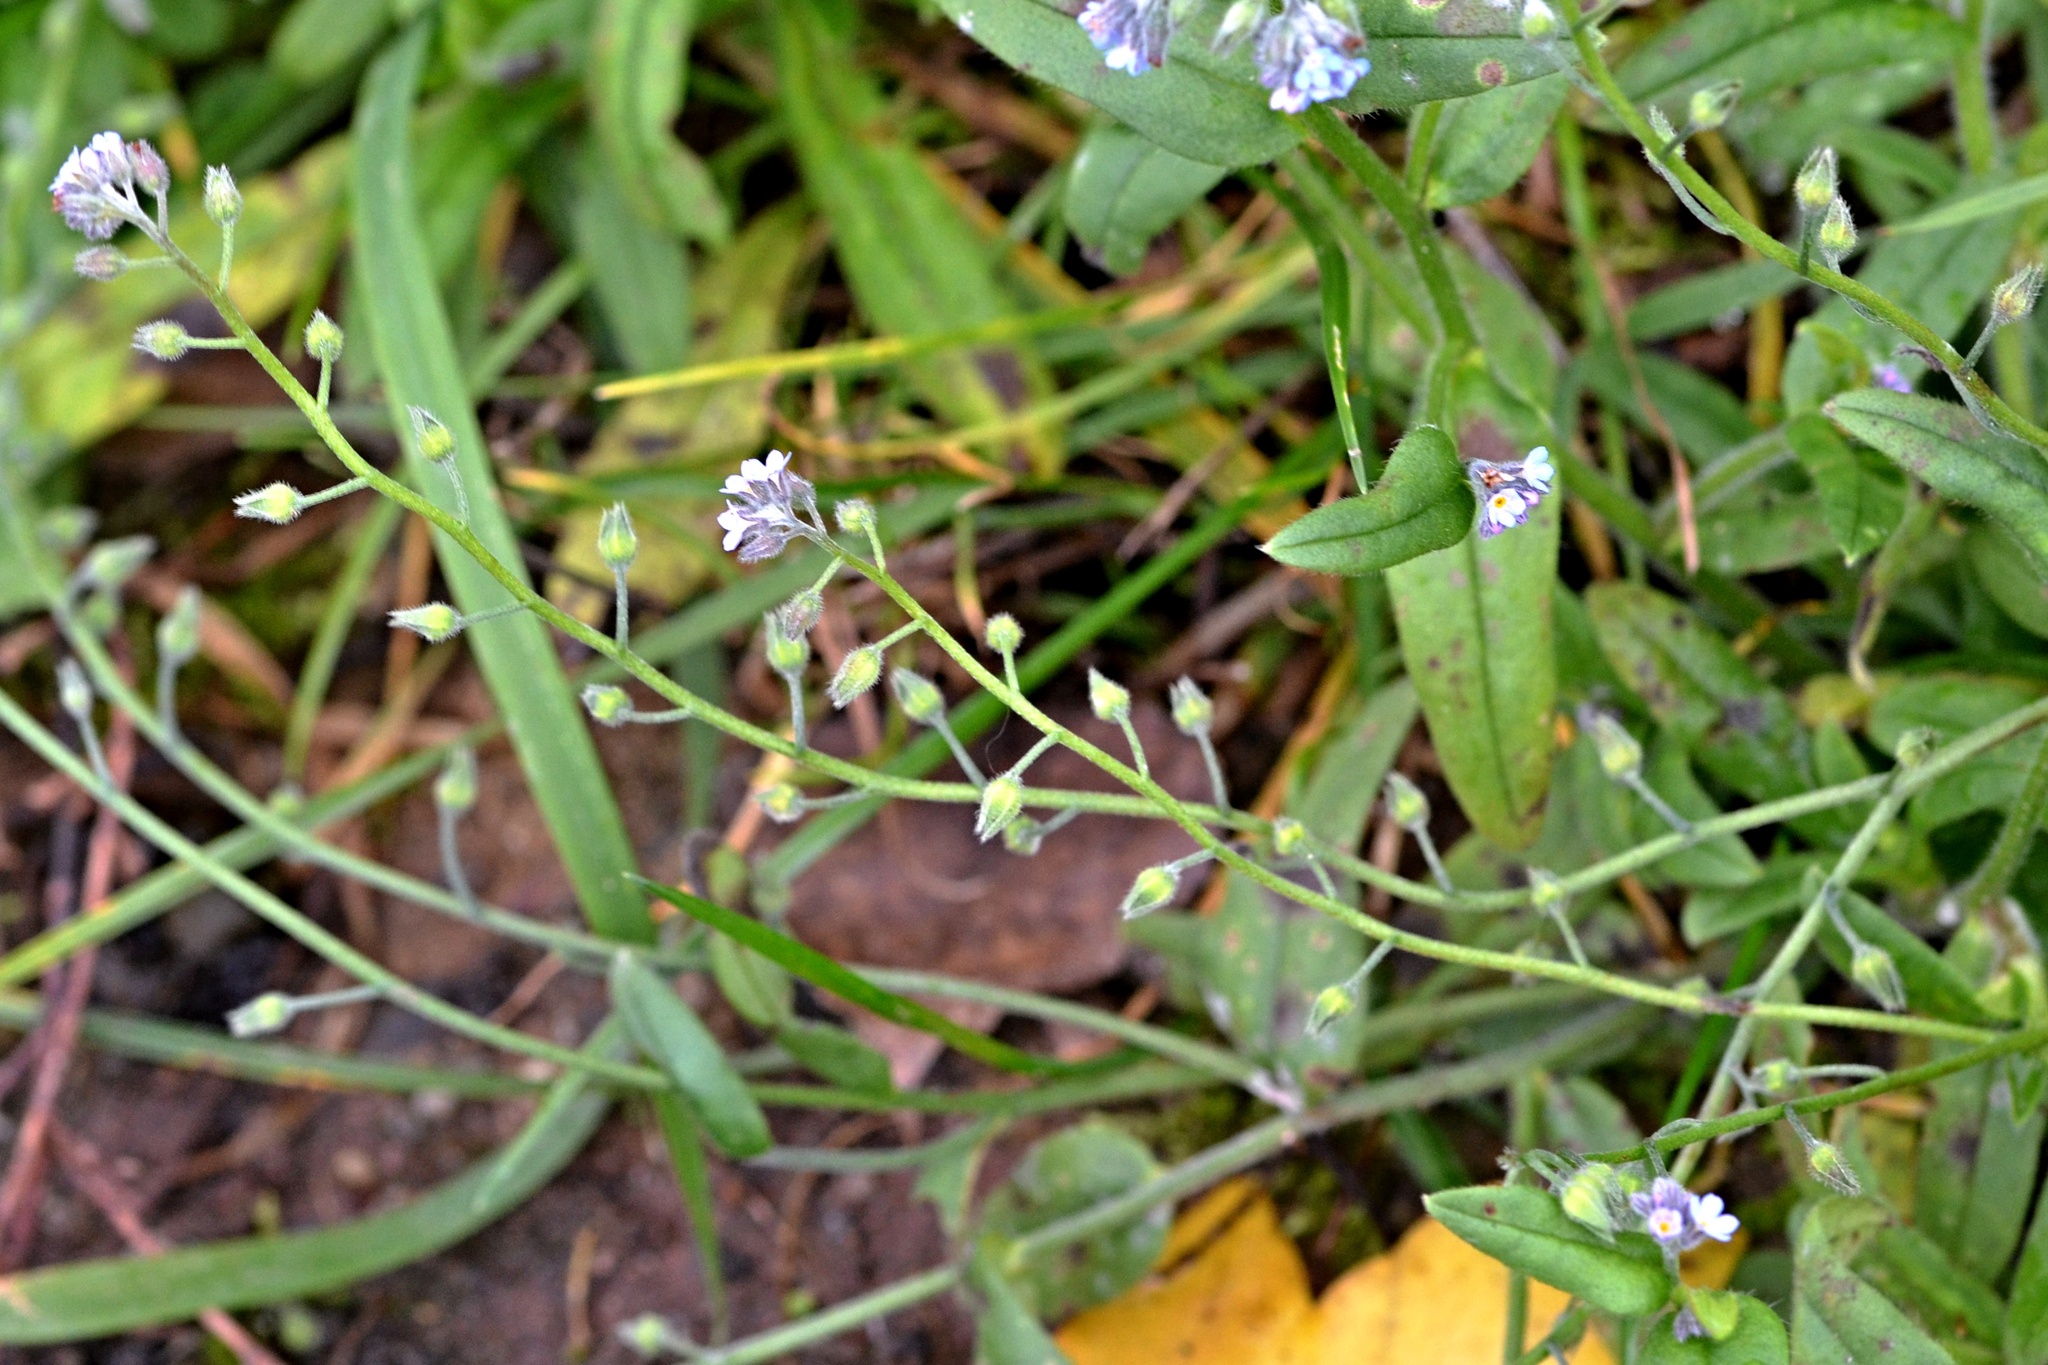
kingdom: Plantae
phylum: Tracheophyta
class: Magnoliopsida
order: Boraginales
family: Boraginaceae
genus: Myosotis
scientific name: Myosotis arvensis
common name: Field forget-me-not
